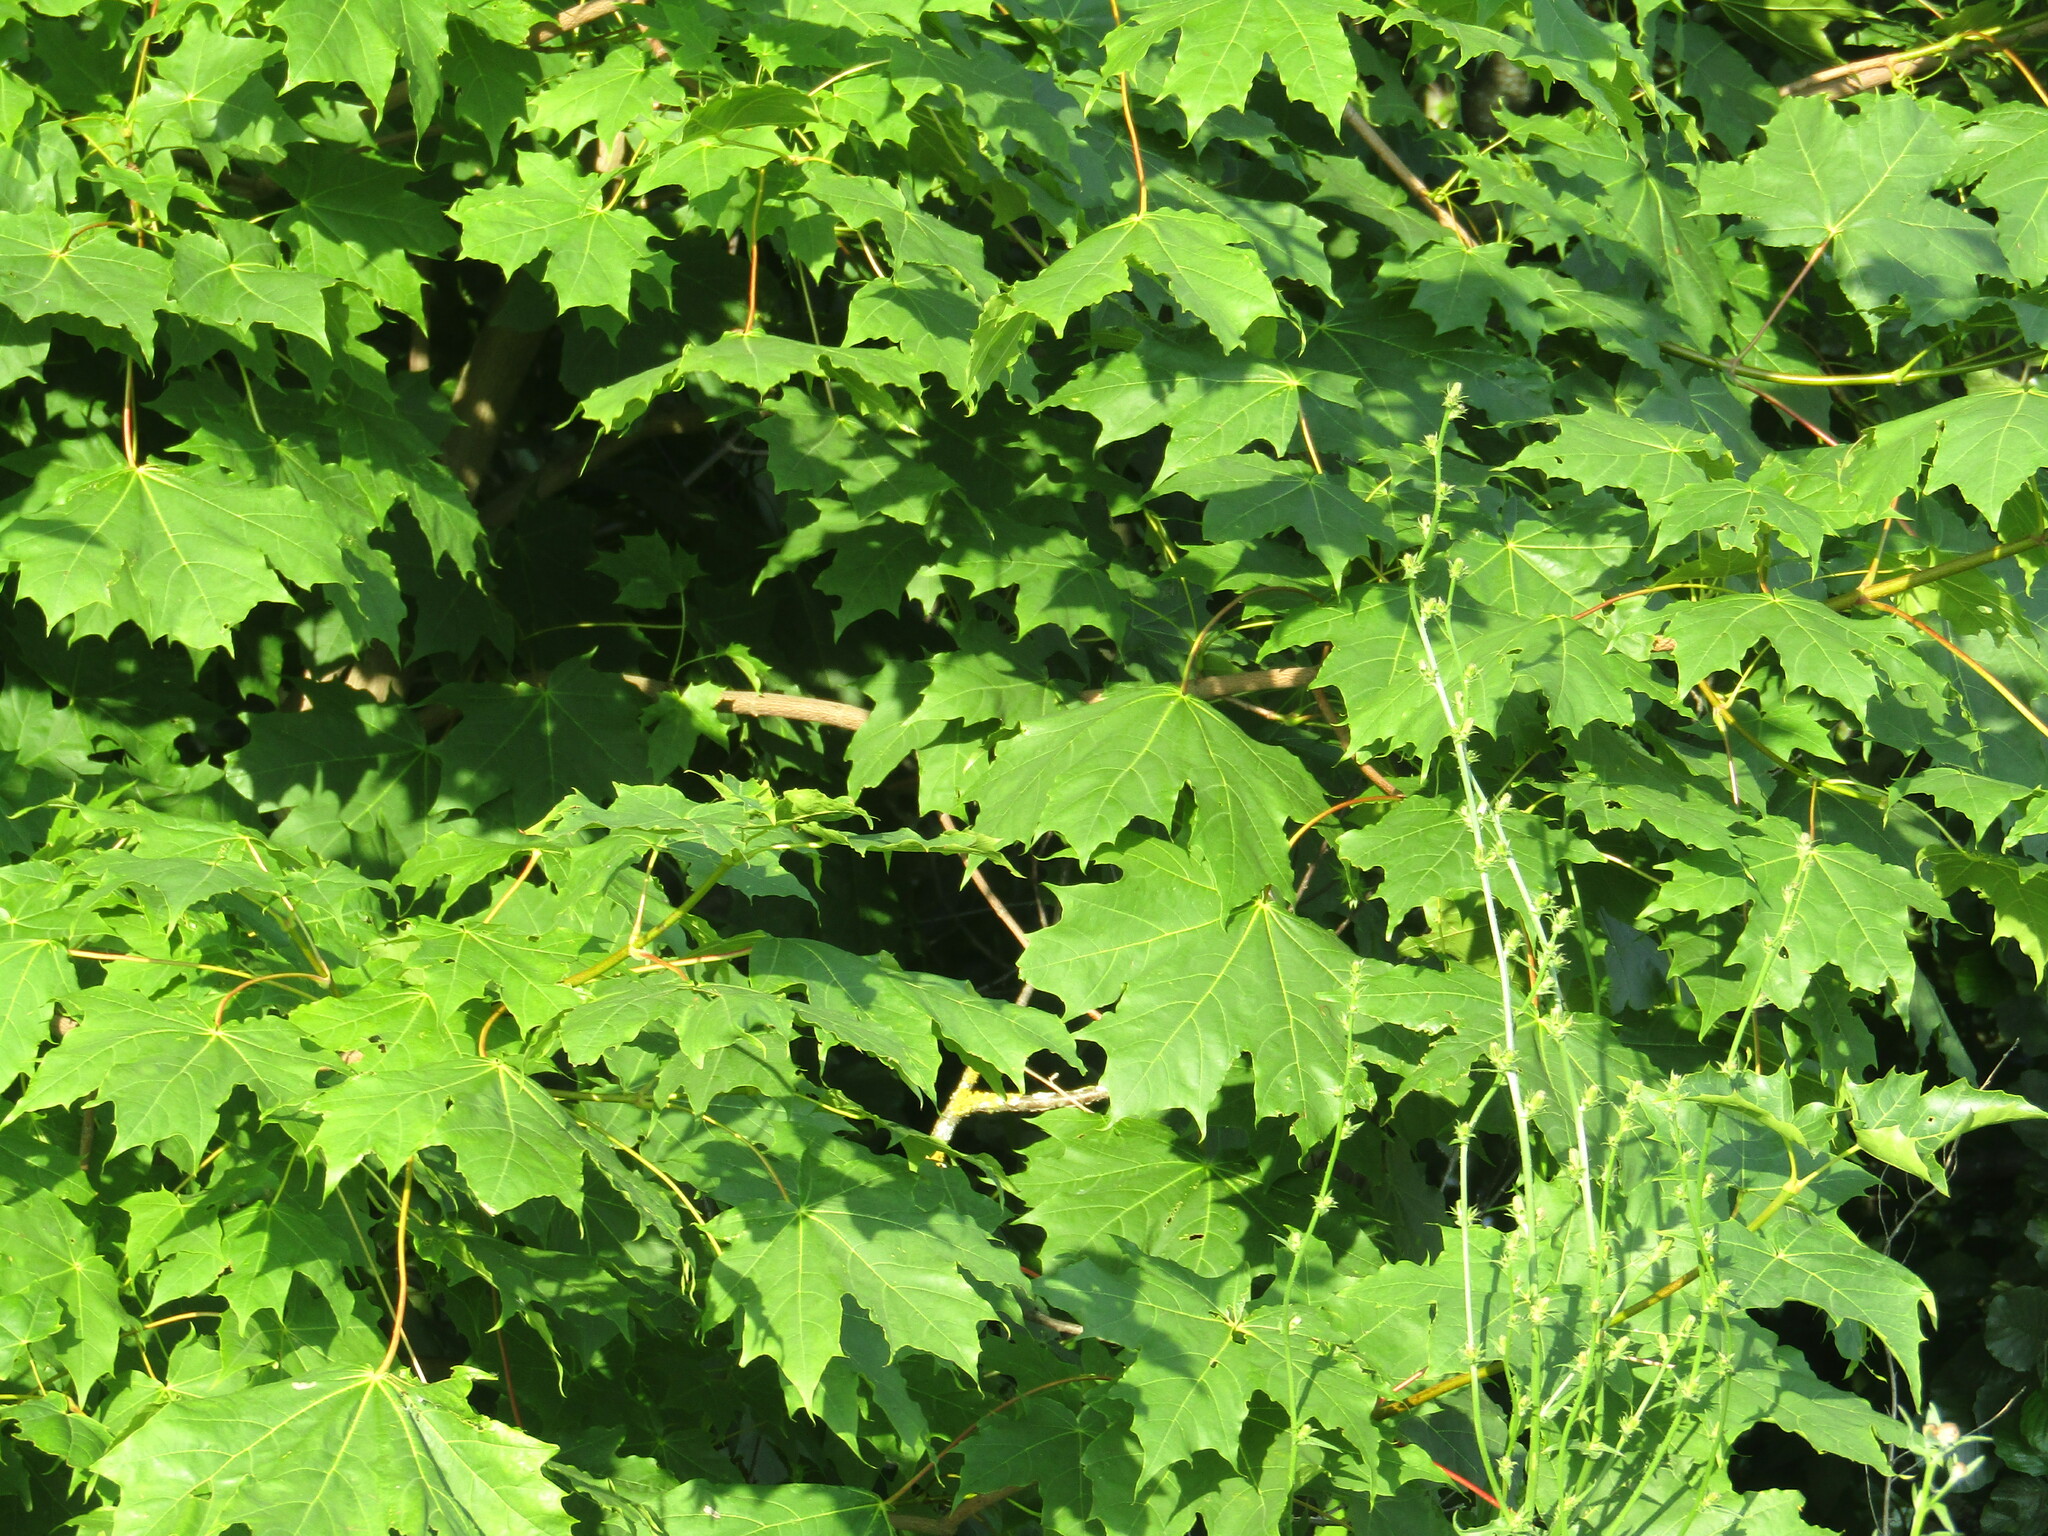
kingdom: Plantae
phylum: Tracheophyta
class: Magnoliopsida
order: Sapindales
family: Sapindaceae
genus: Acer
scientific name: Acer platanoides
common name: Norway maple
